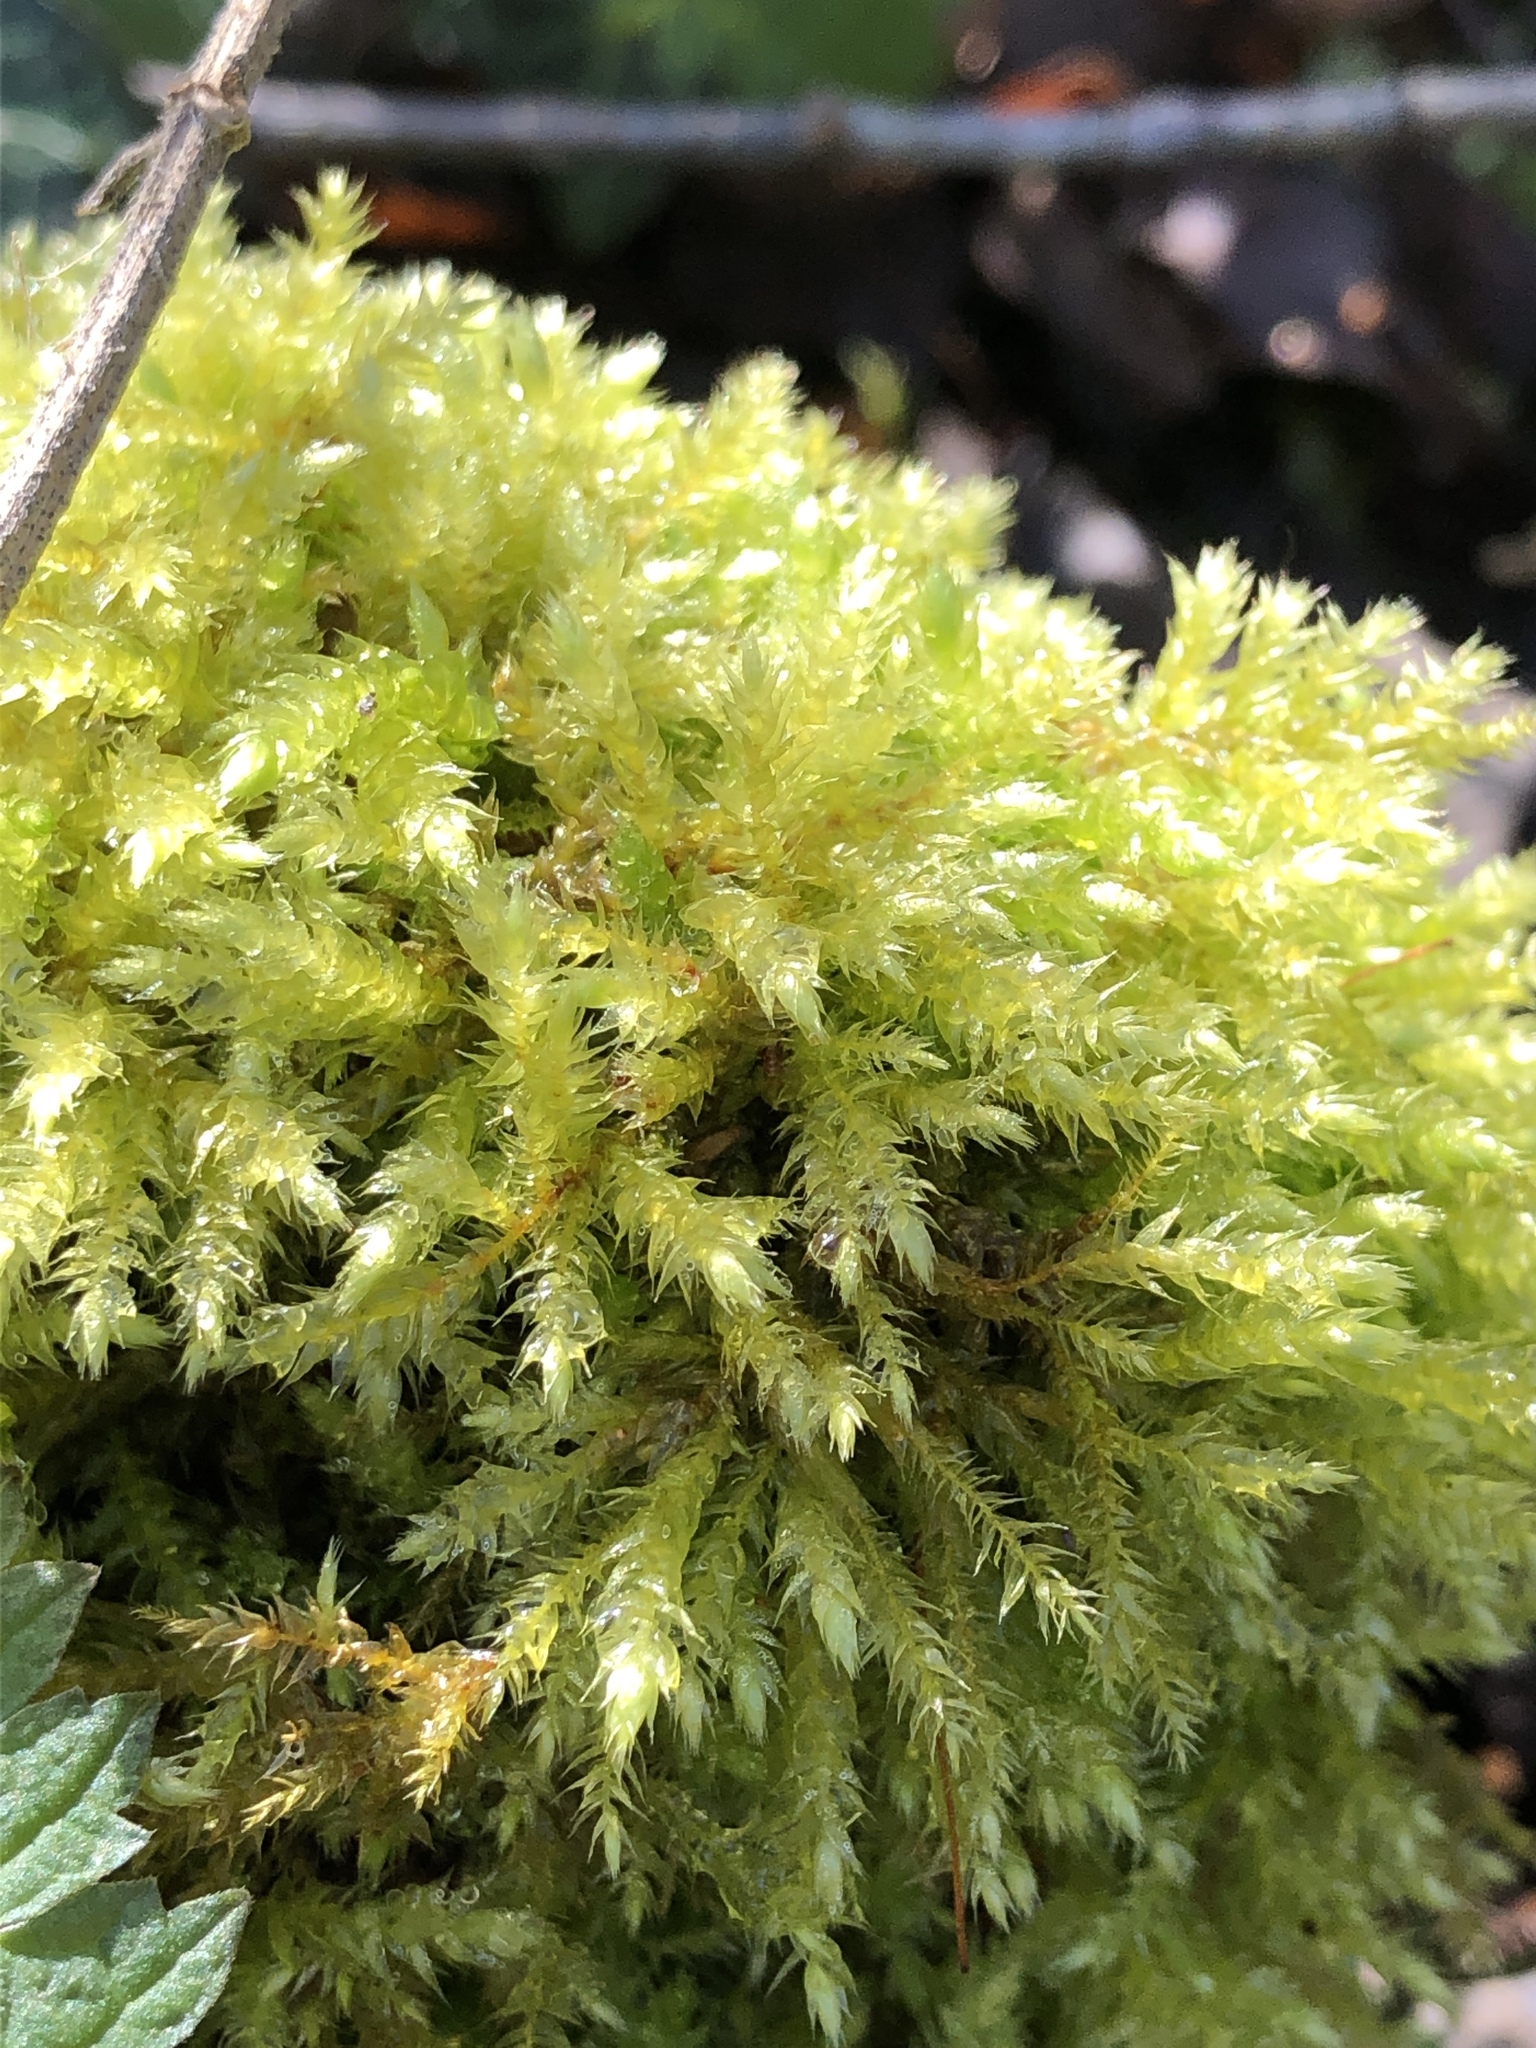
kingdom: Plantae
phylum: Bryophyta
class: Bryopsida
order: Hypnales
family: Brachytheciaceae
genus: Brachythecium
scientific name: Brachythecium rutabulum
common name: Rough-stalked feather-moss
